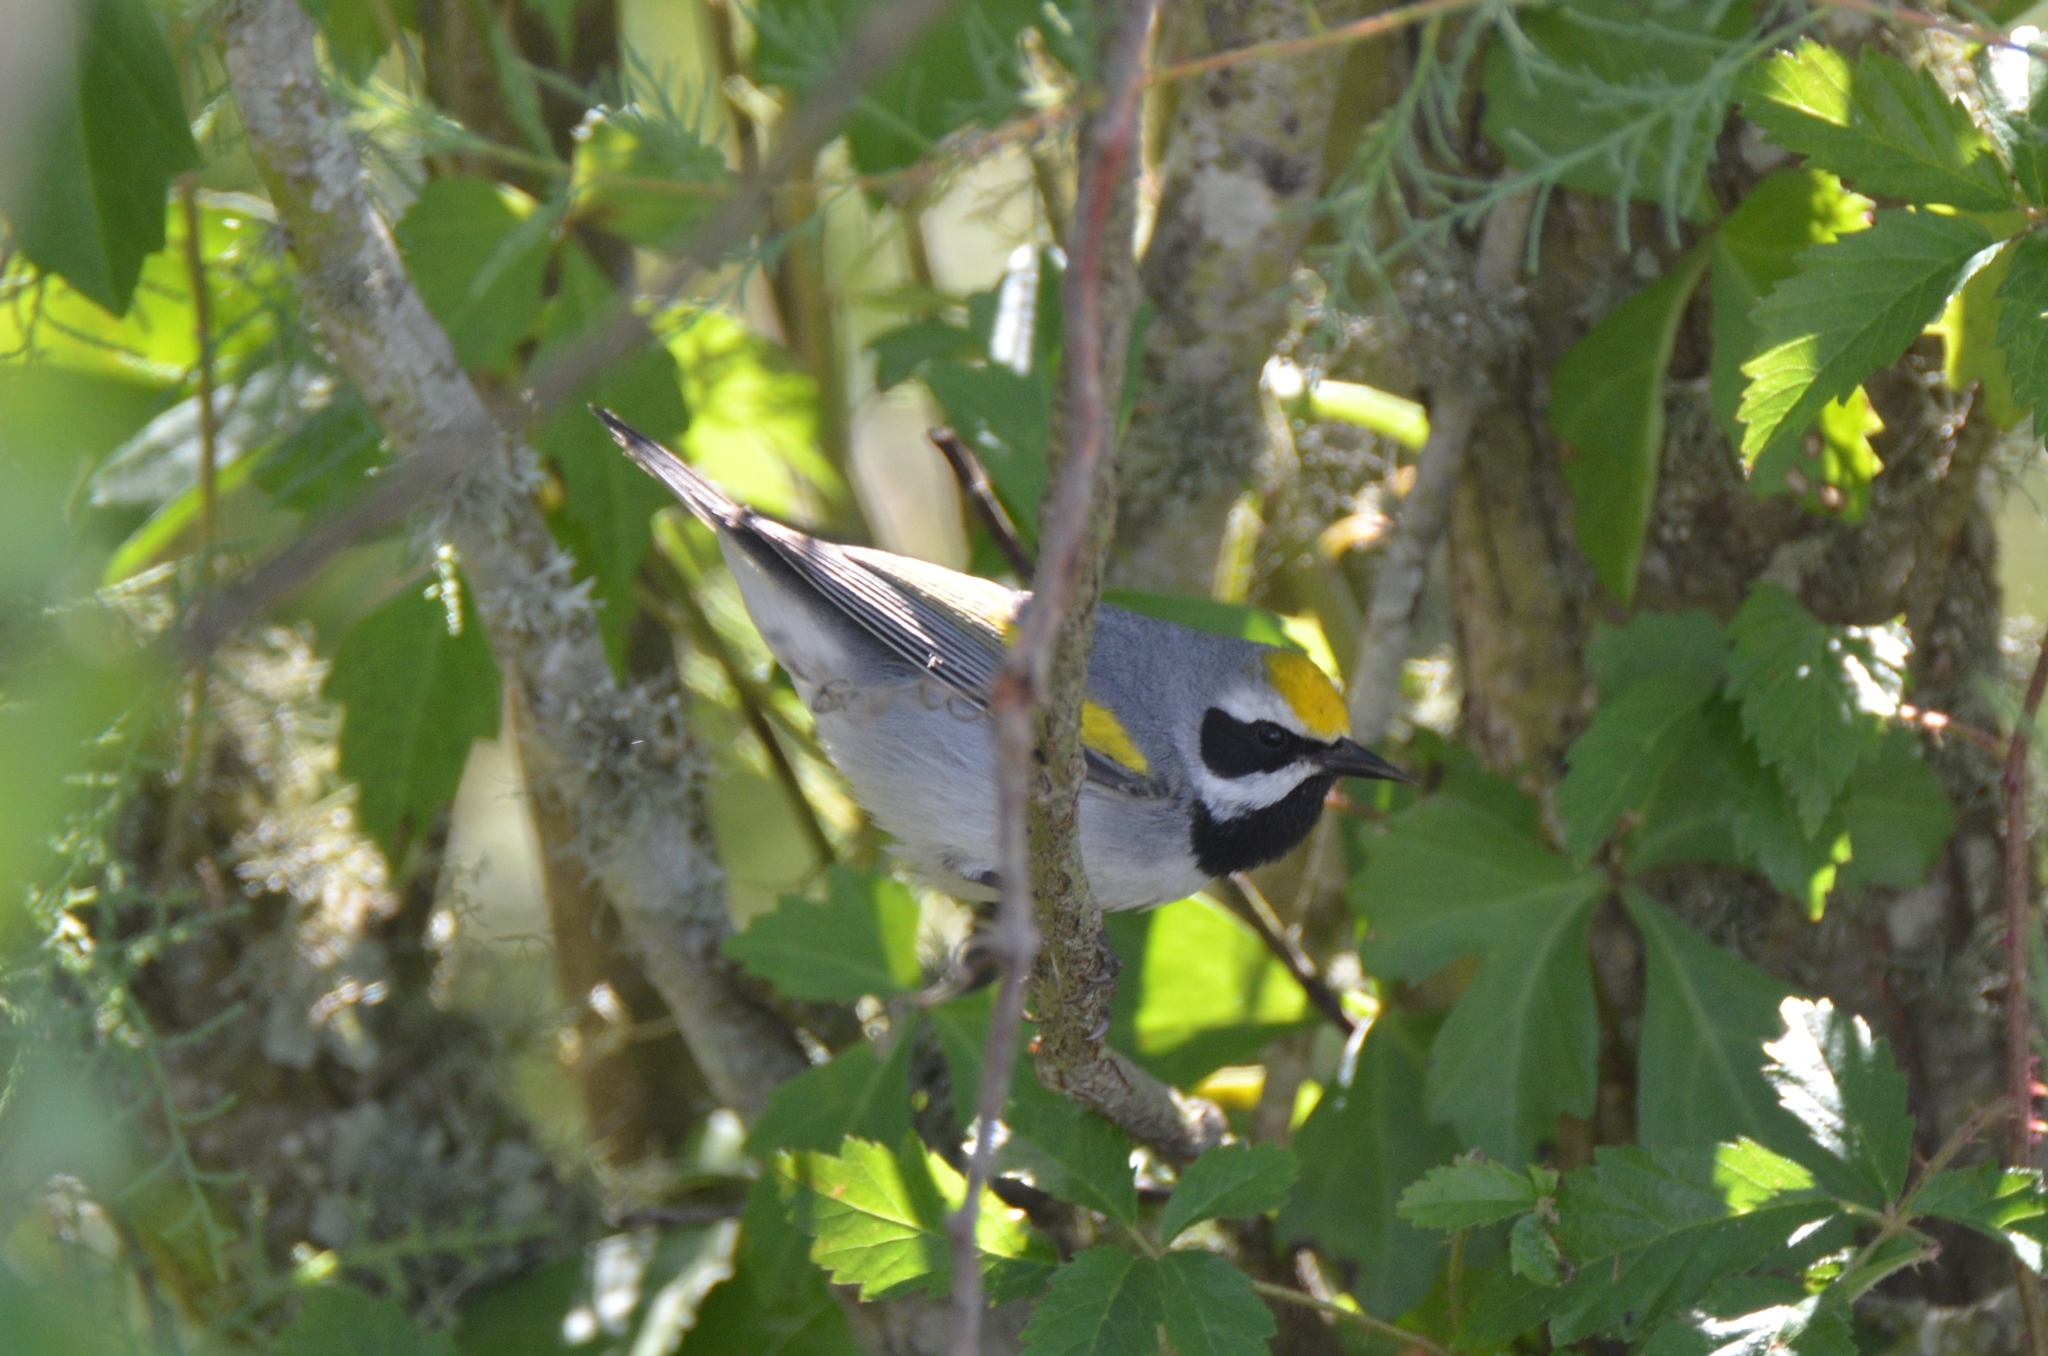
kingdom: Animalia
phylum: Chordata
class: Aves
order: Passeriformes
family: Parulidae
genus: Vermivora
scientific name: Vermivora chrysoptera
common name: Golden-winged warbler
